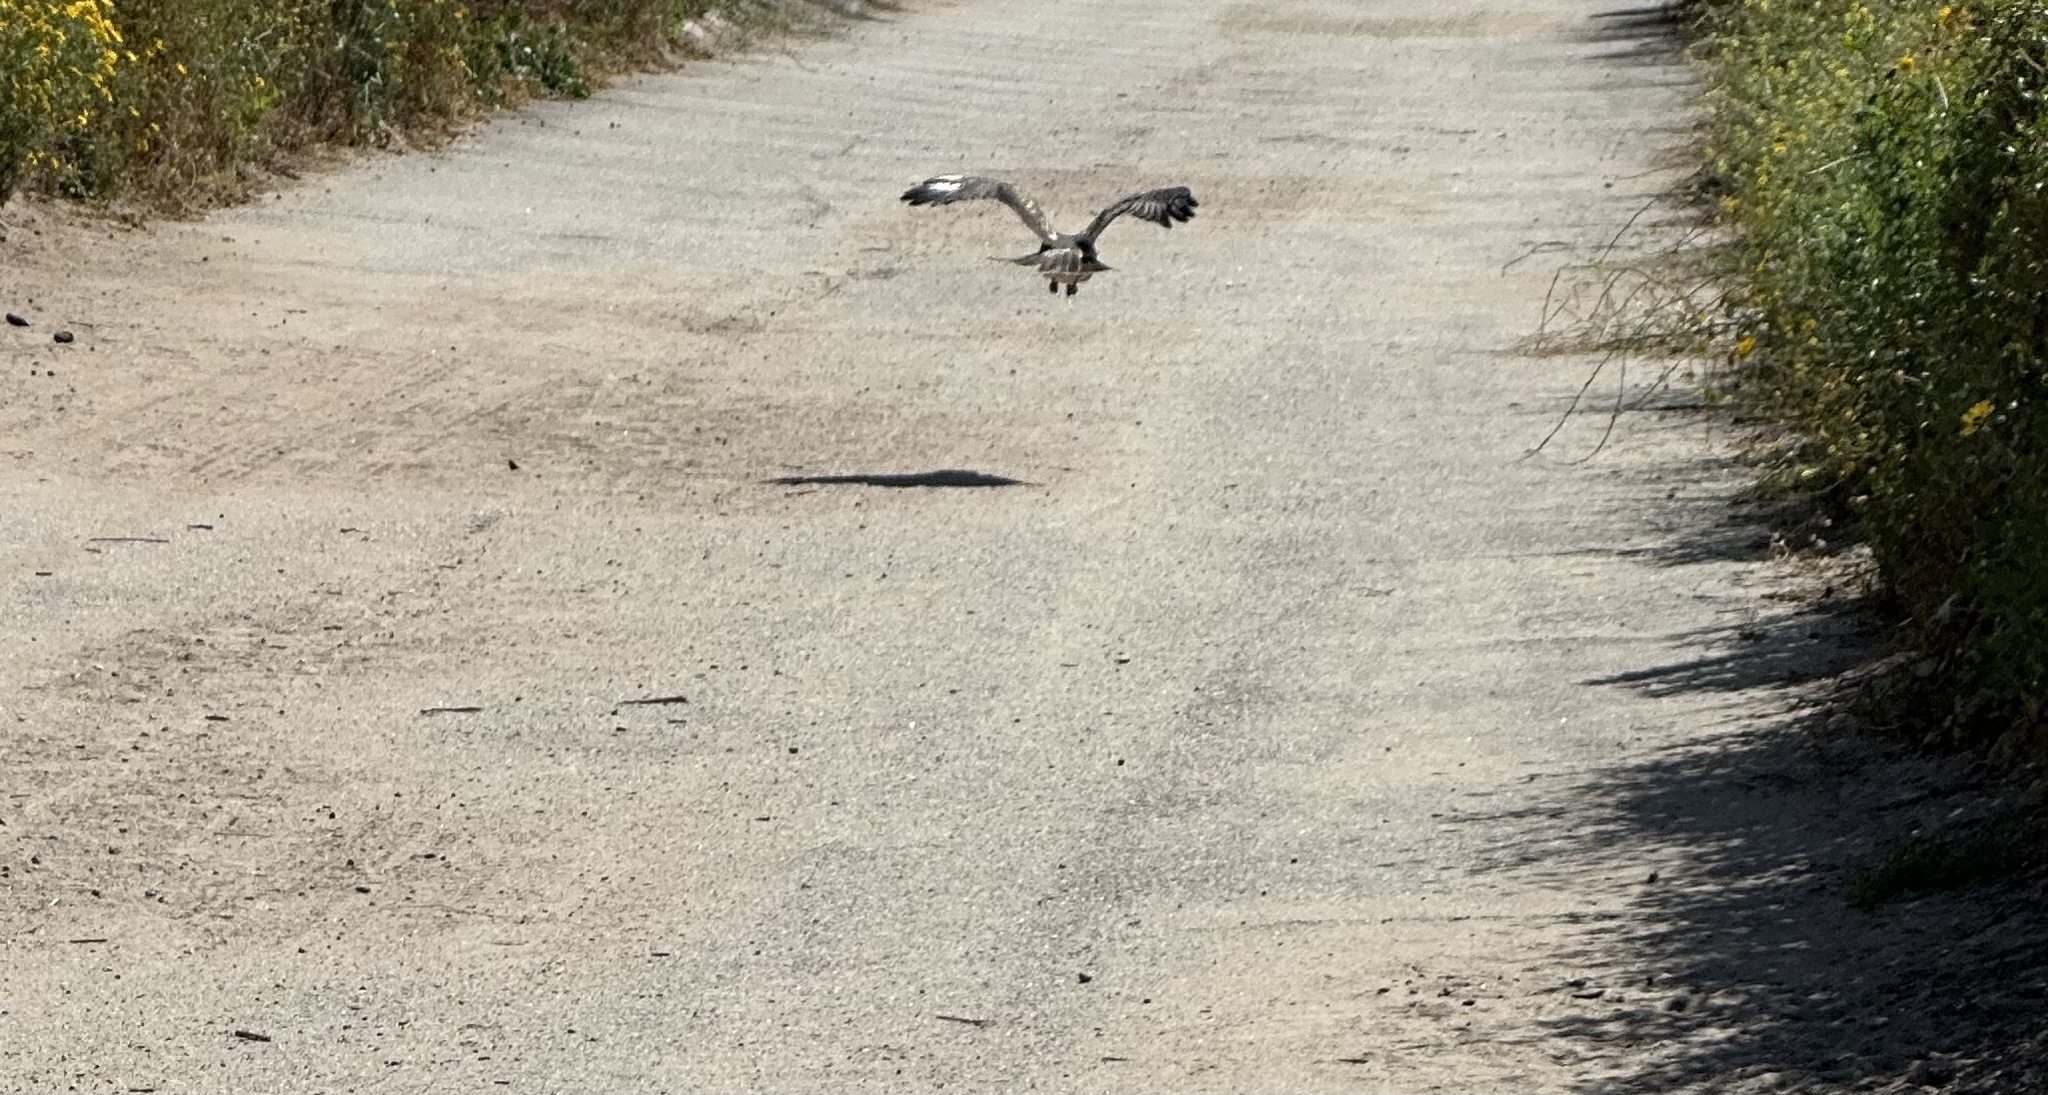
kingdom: Animalia
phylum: Chordata
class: Aves
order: Accipitriformes
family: Accipitridae
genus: Buteo
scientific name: Buteo jamaicensis
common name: Red-tailed hawk
